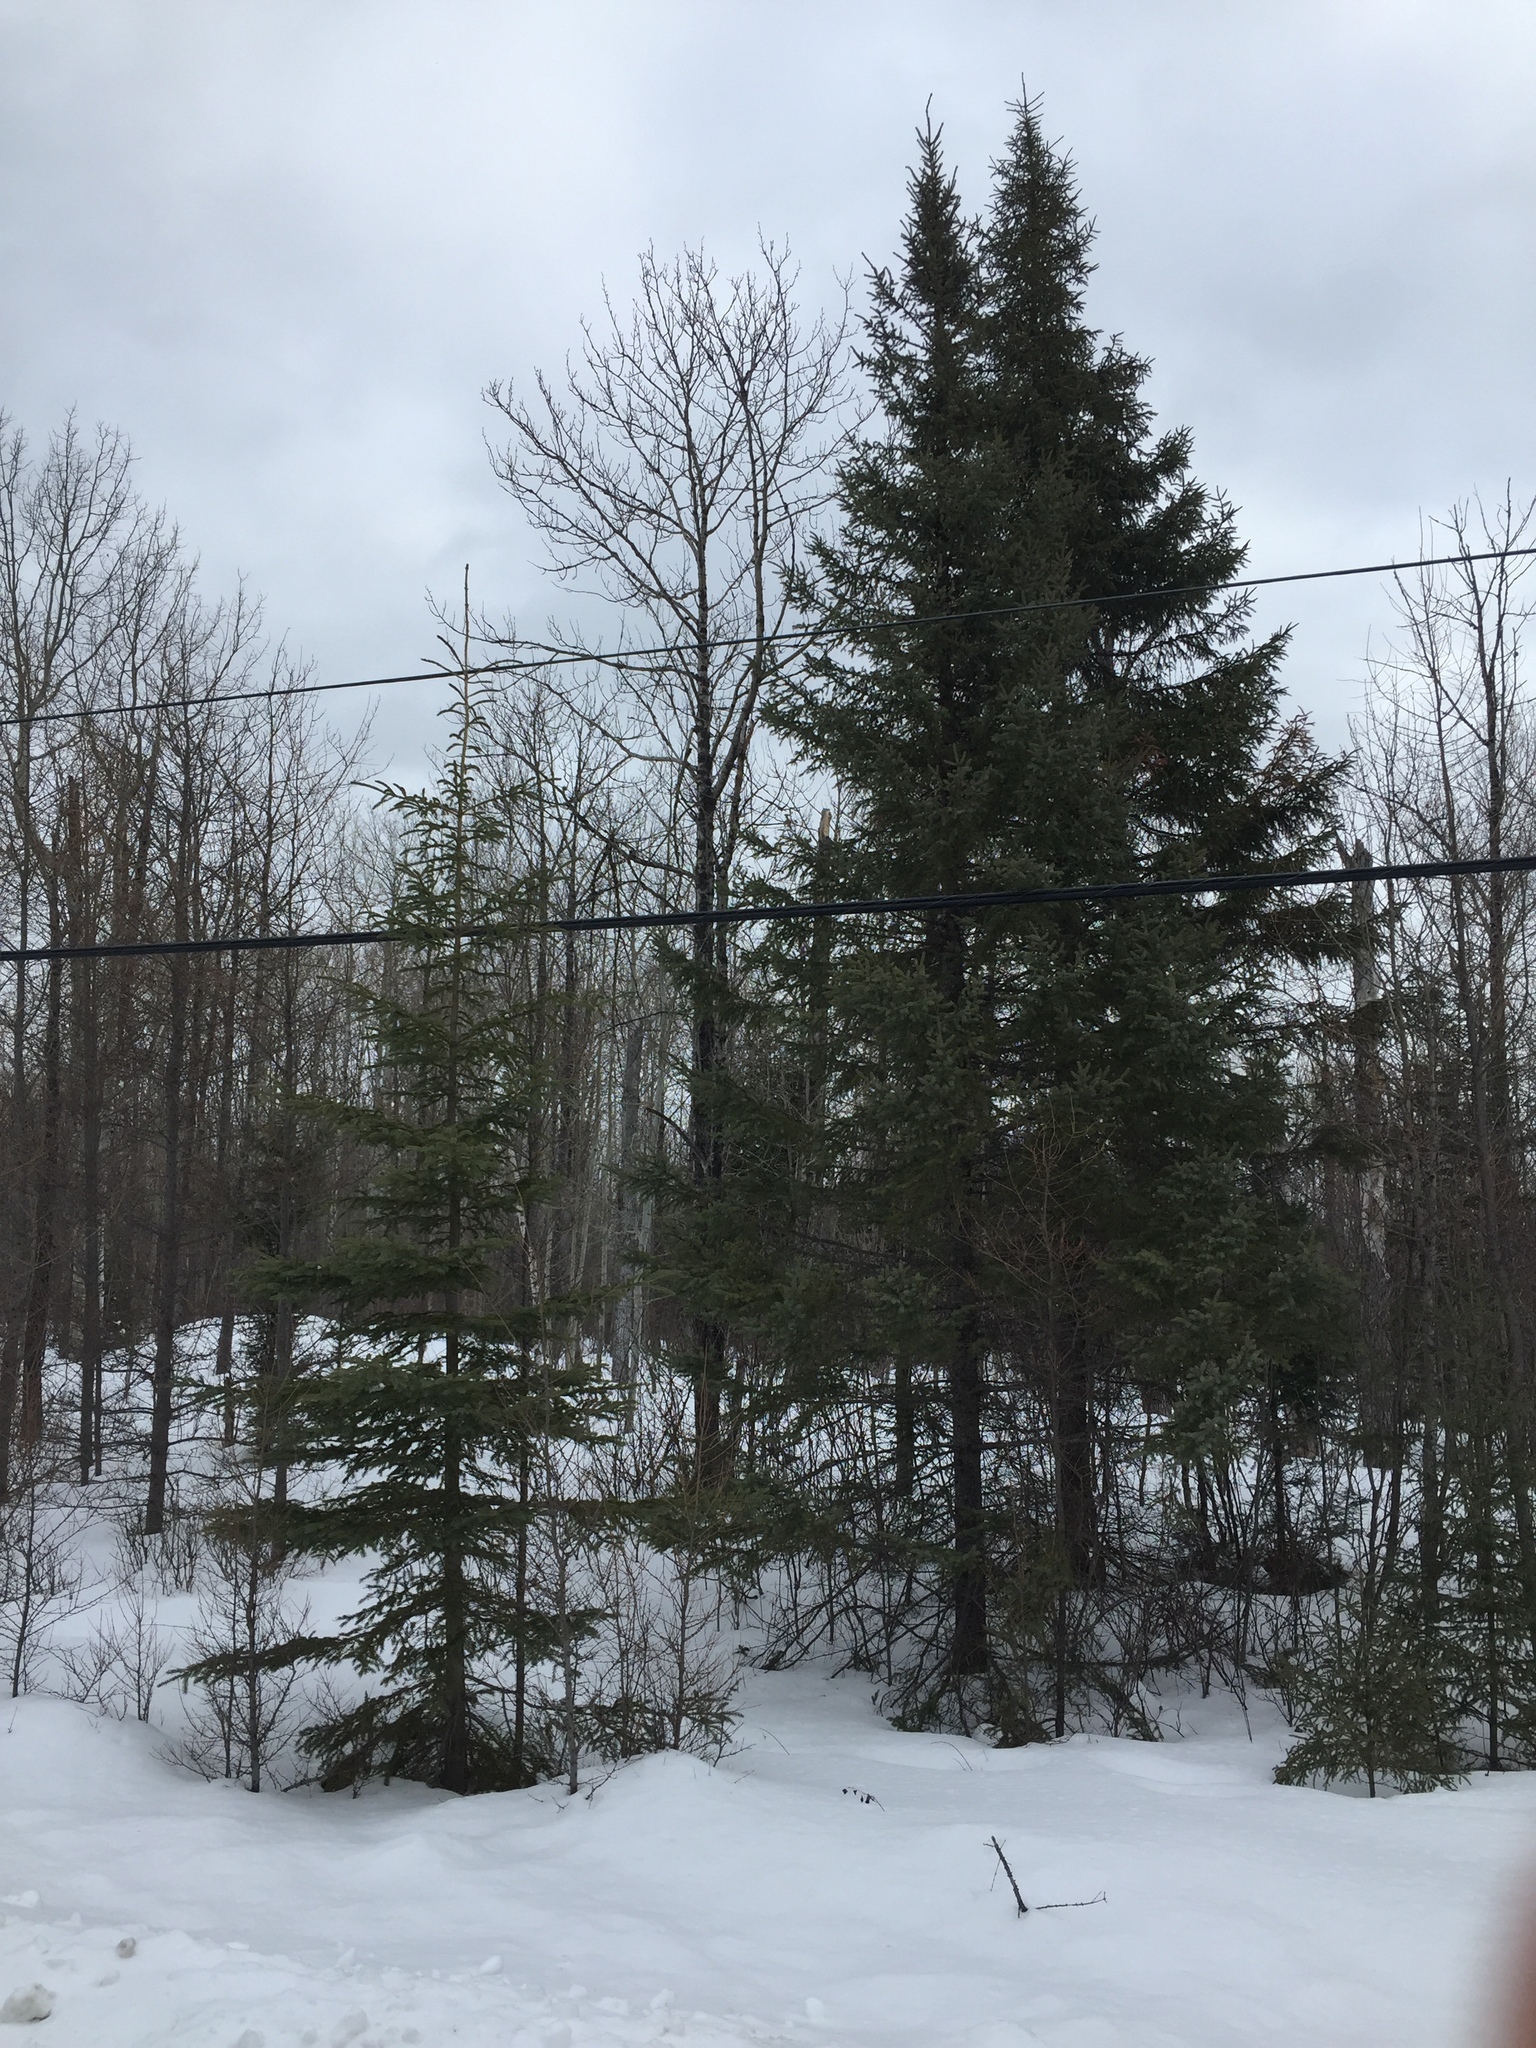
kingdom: Plantae
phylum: Tracheophyta
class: Pinopsida
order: Pinales
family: Pinaceae
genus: Picea
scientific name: Picea glauca
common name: White spruce
